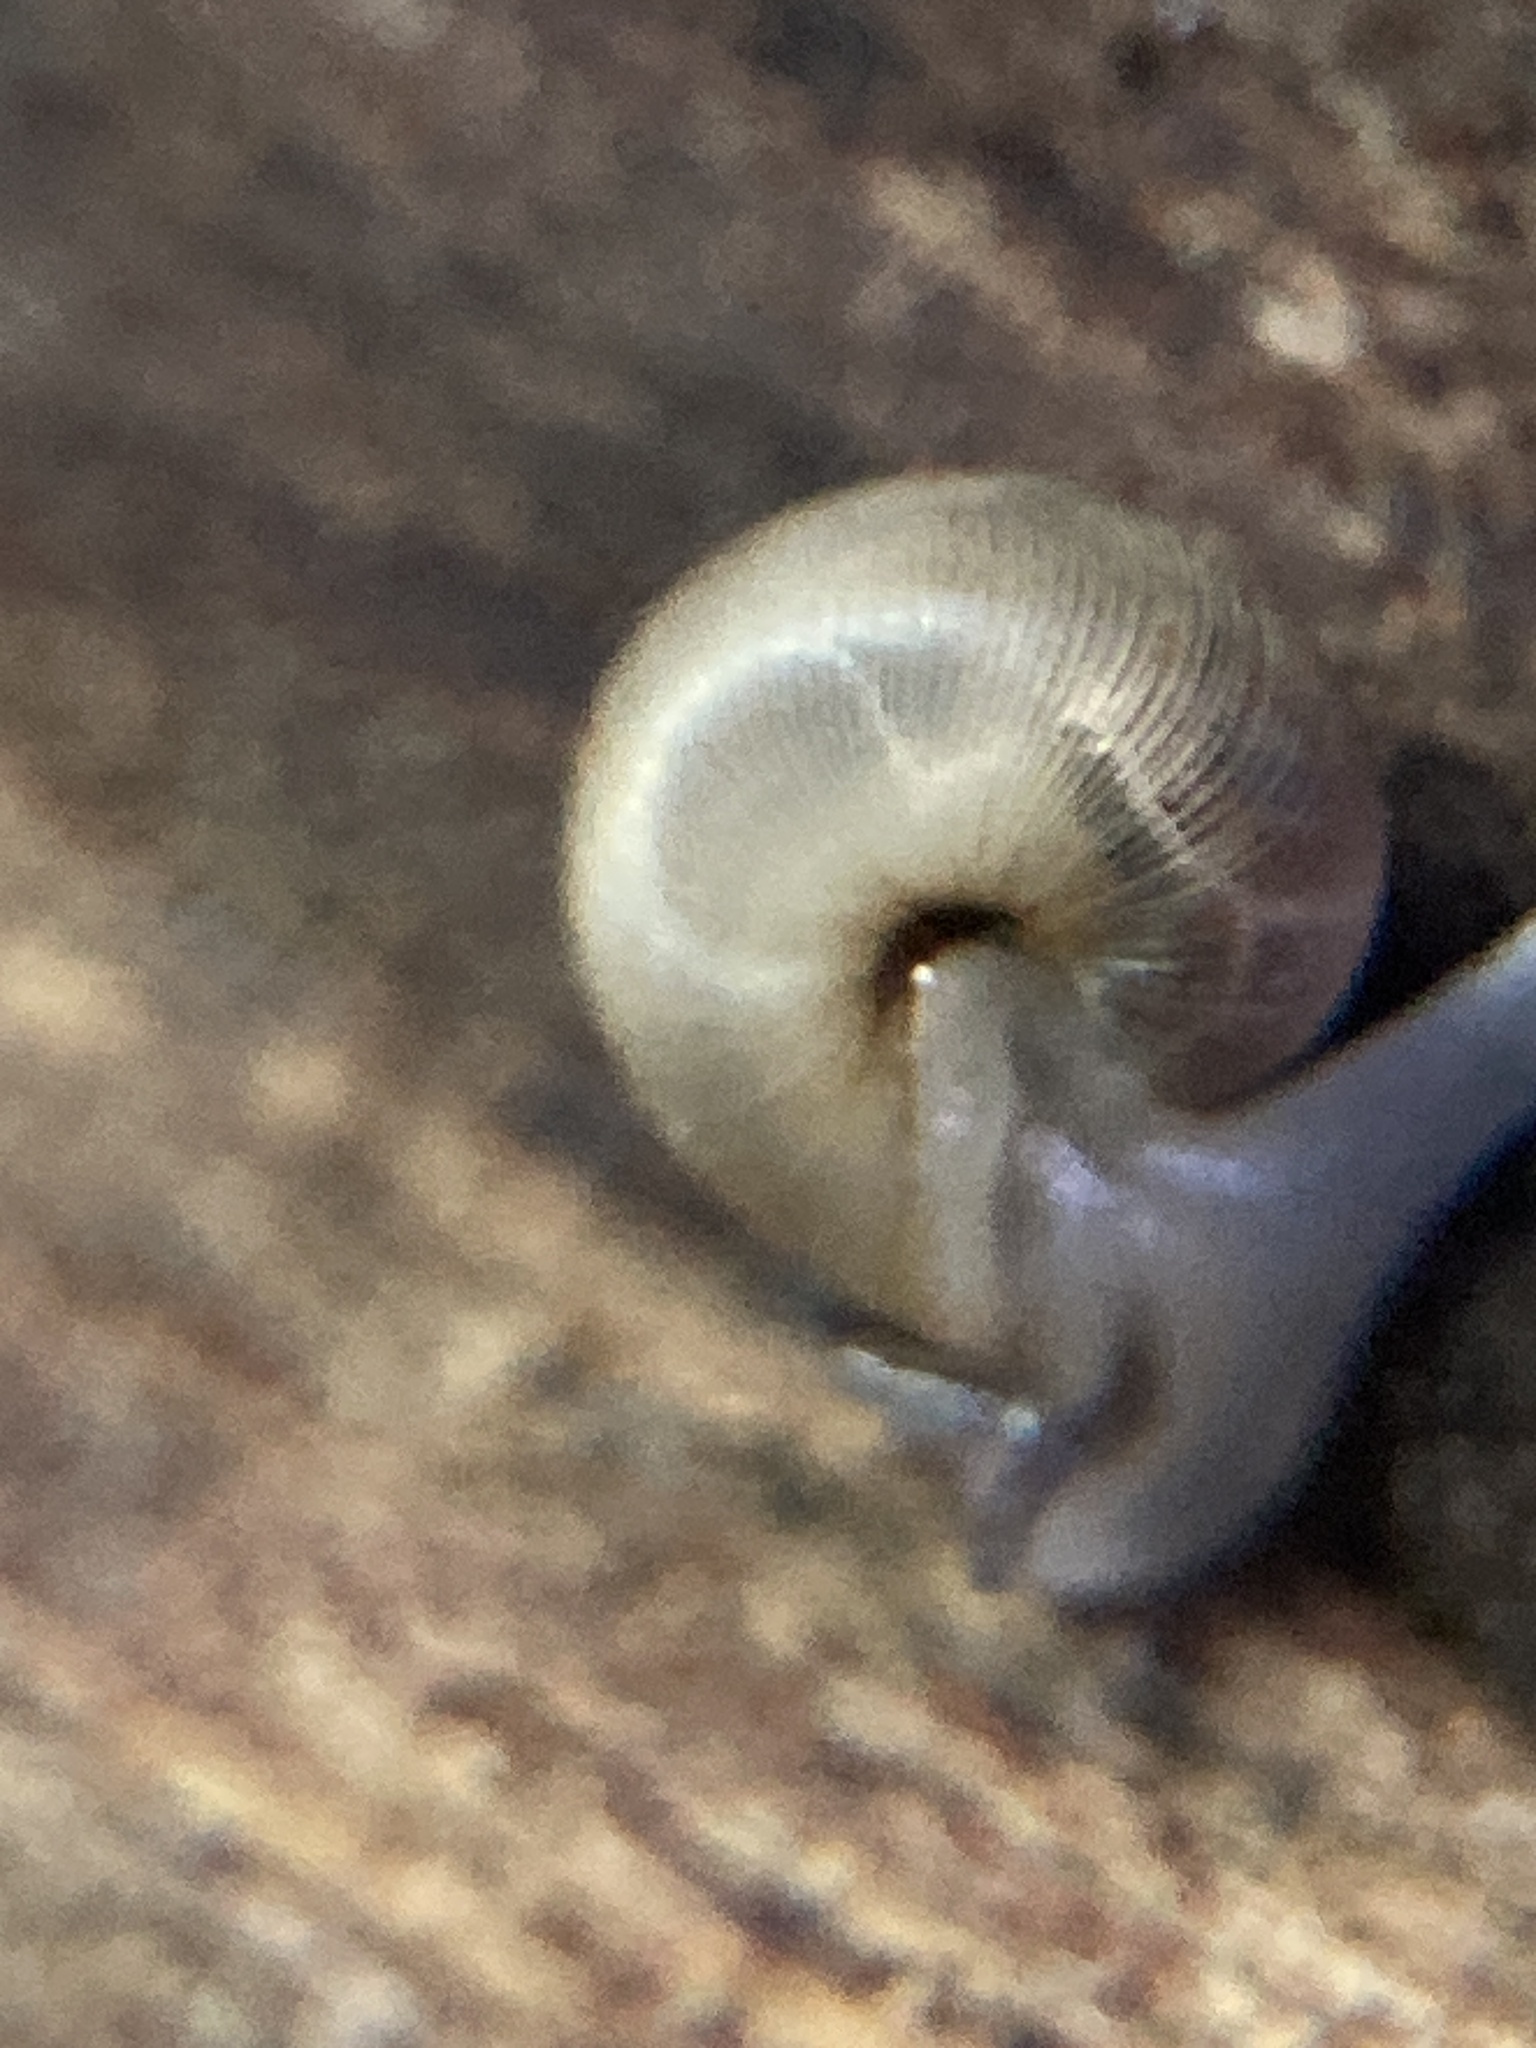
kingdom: Animalia
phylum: Mollusca
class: Gastropoda
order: Stylommatophora
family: Charopidae
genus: Elsothera
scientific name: Elsothera sericatula
